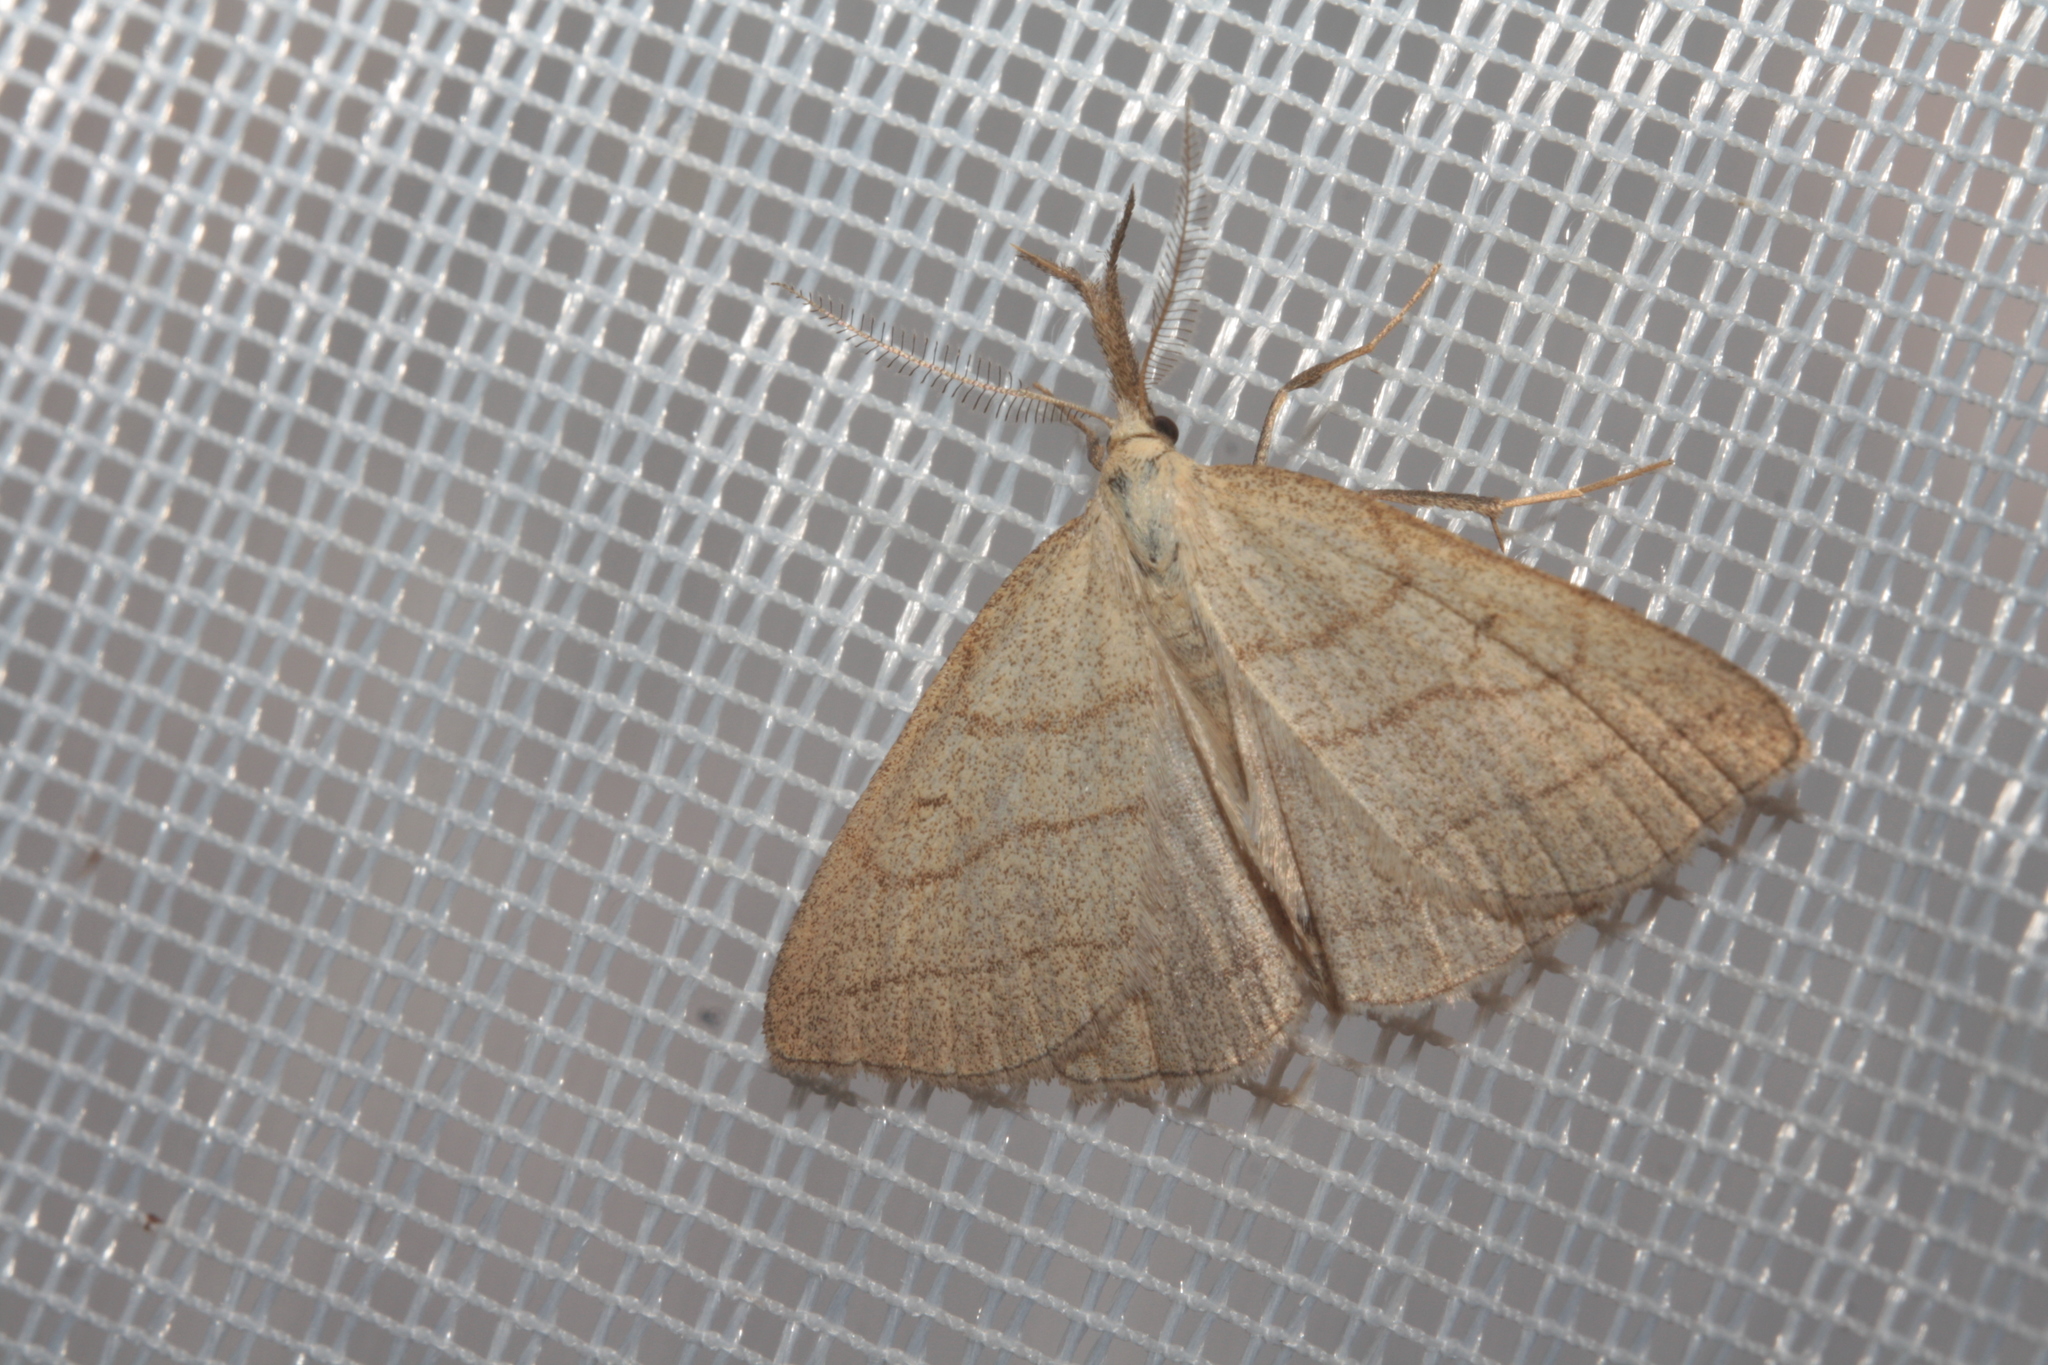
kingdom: Animalia
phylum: Arthropoda
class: Insecta
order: Lepidoptera
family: Erebidae
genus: Polypogon
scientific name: Polypogon tentacularia
